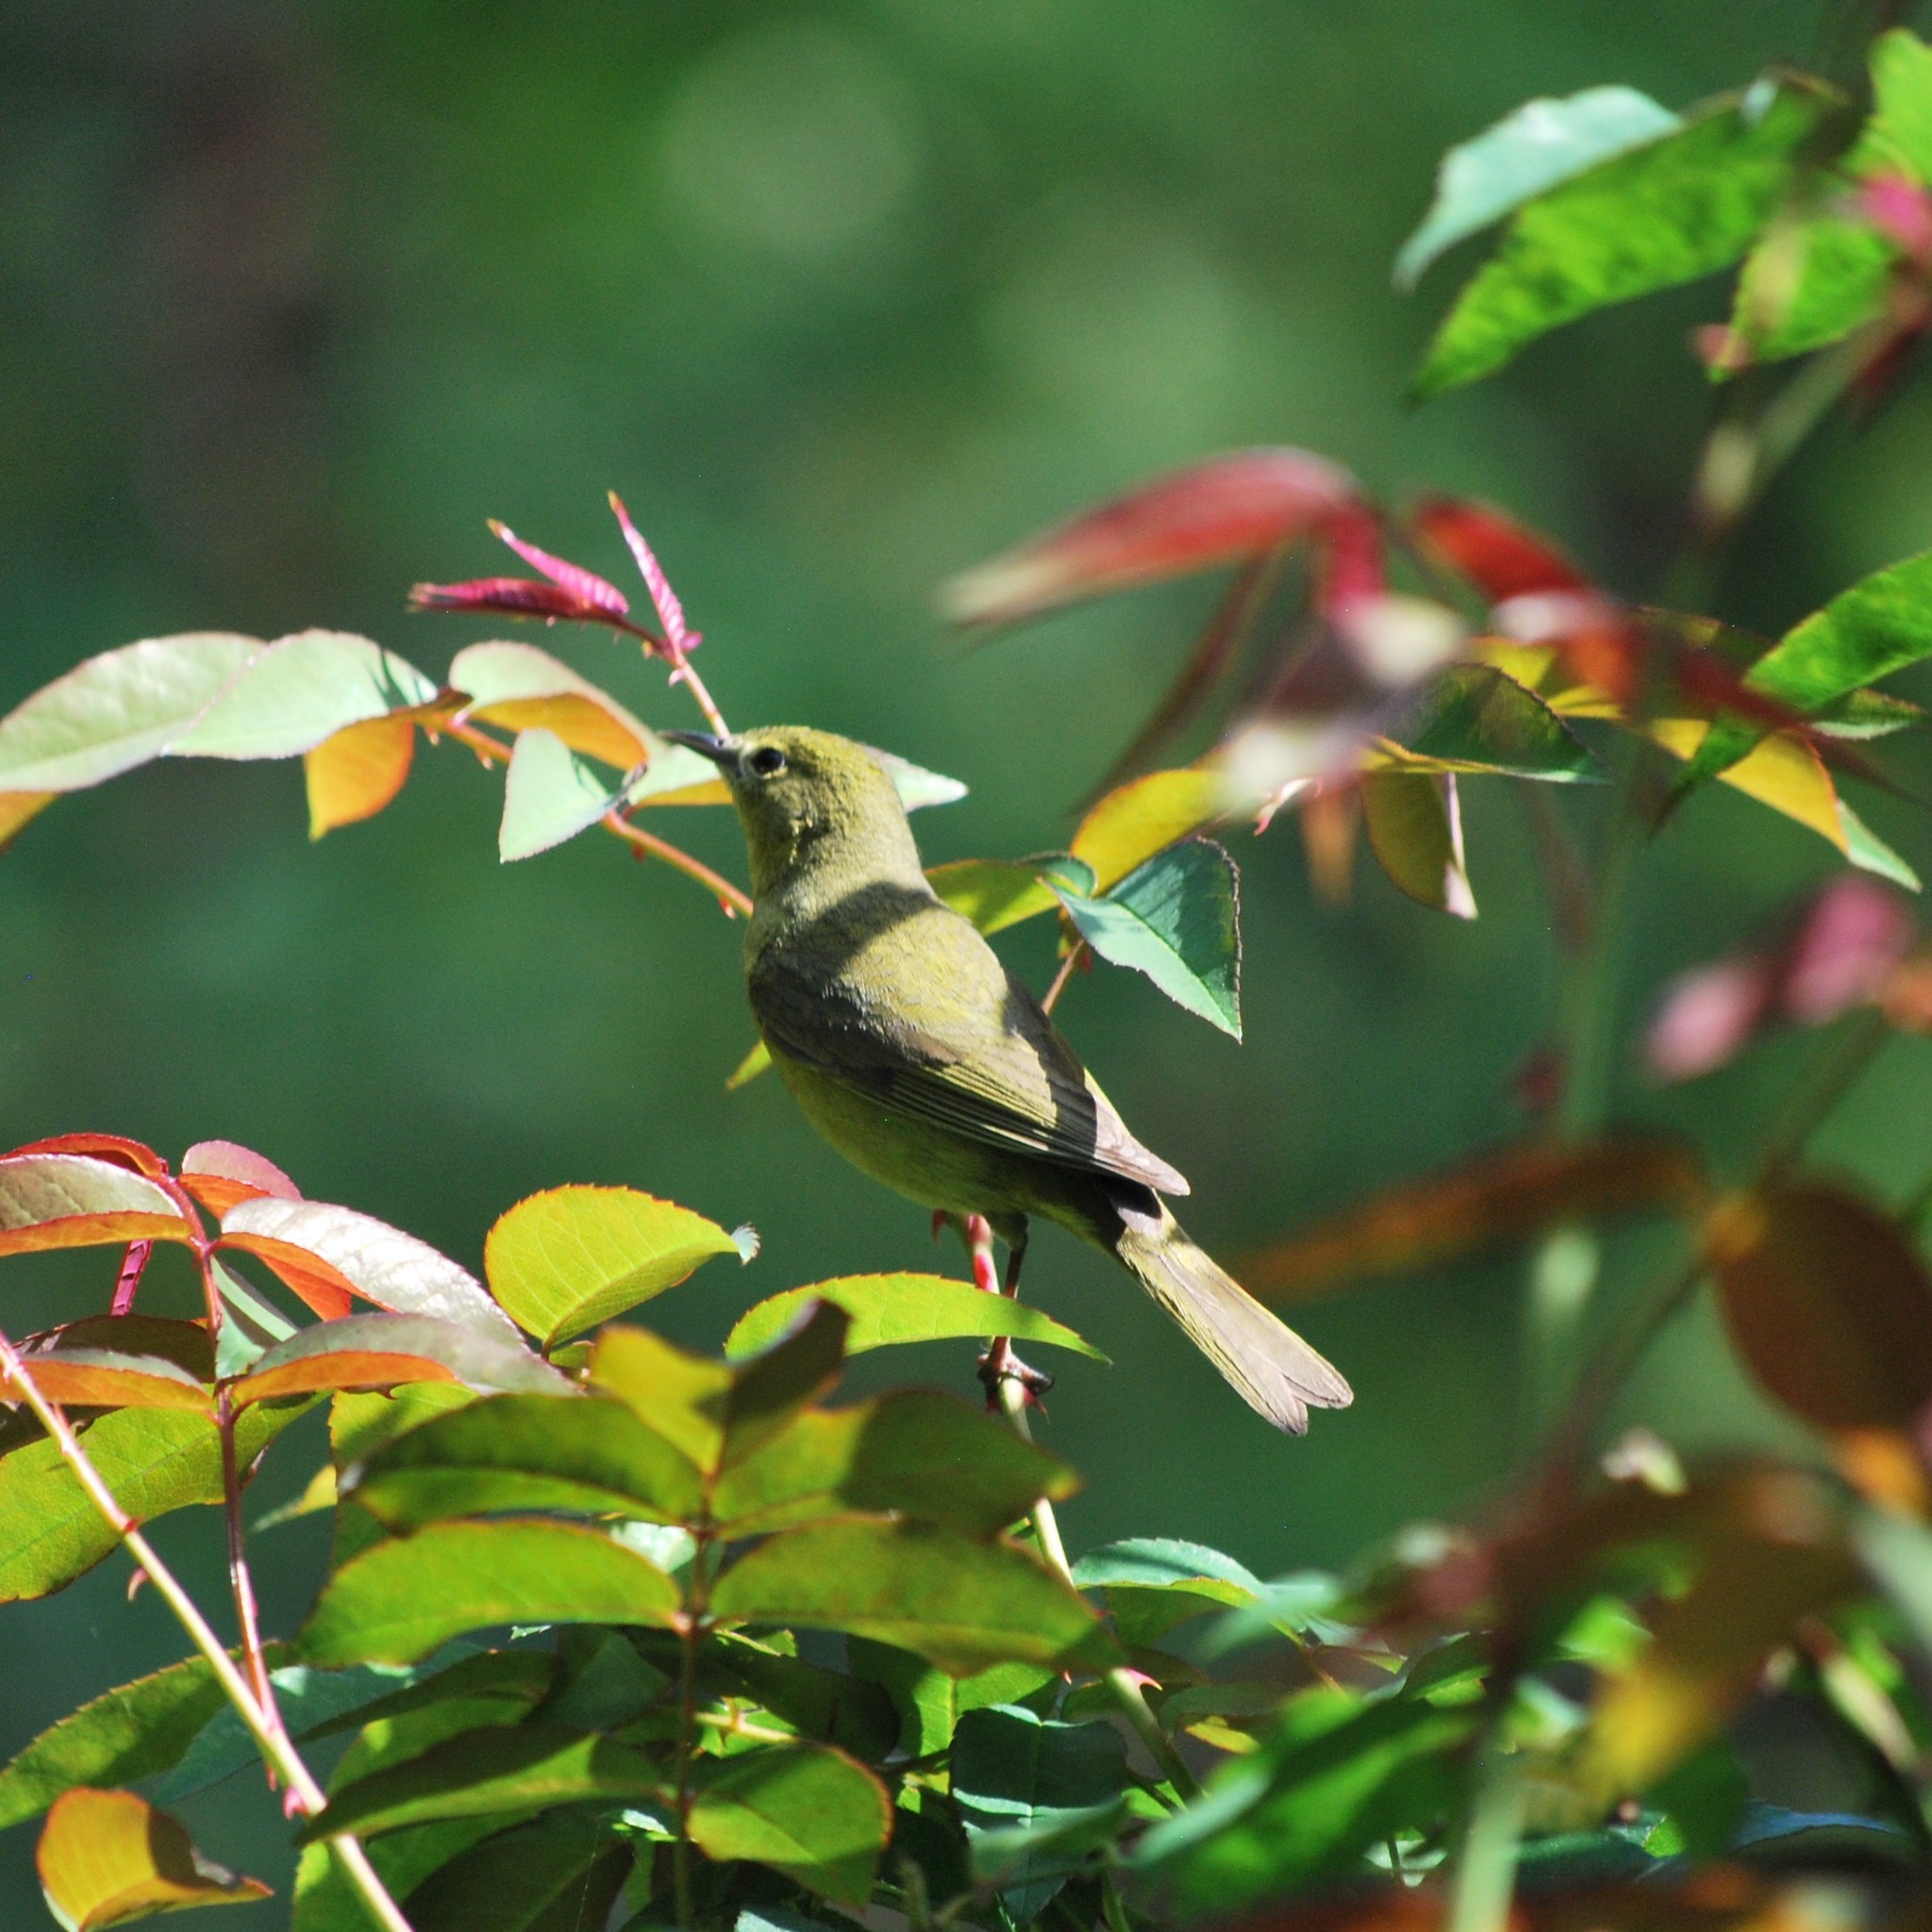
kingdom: Animalia
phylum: Chordata
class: Aves
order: Passeriformes
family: Parulidae
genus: Leiothlypis
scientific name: Leiothlypis celata
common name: Orange-crowned warbler
